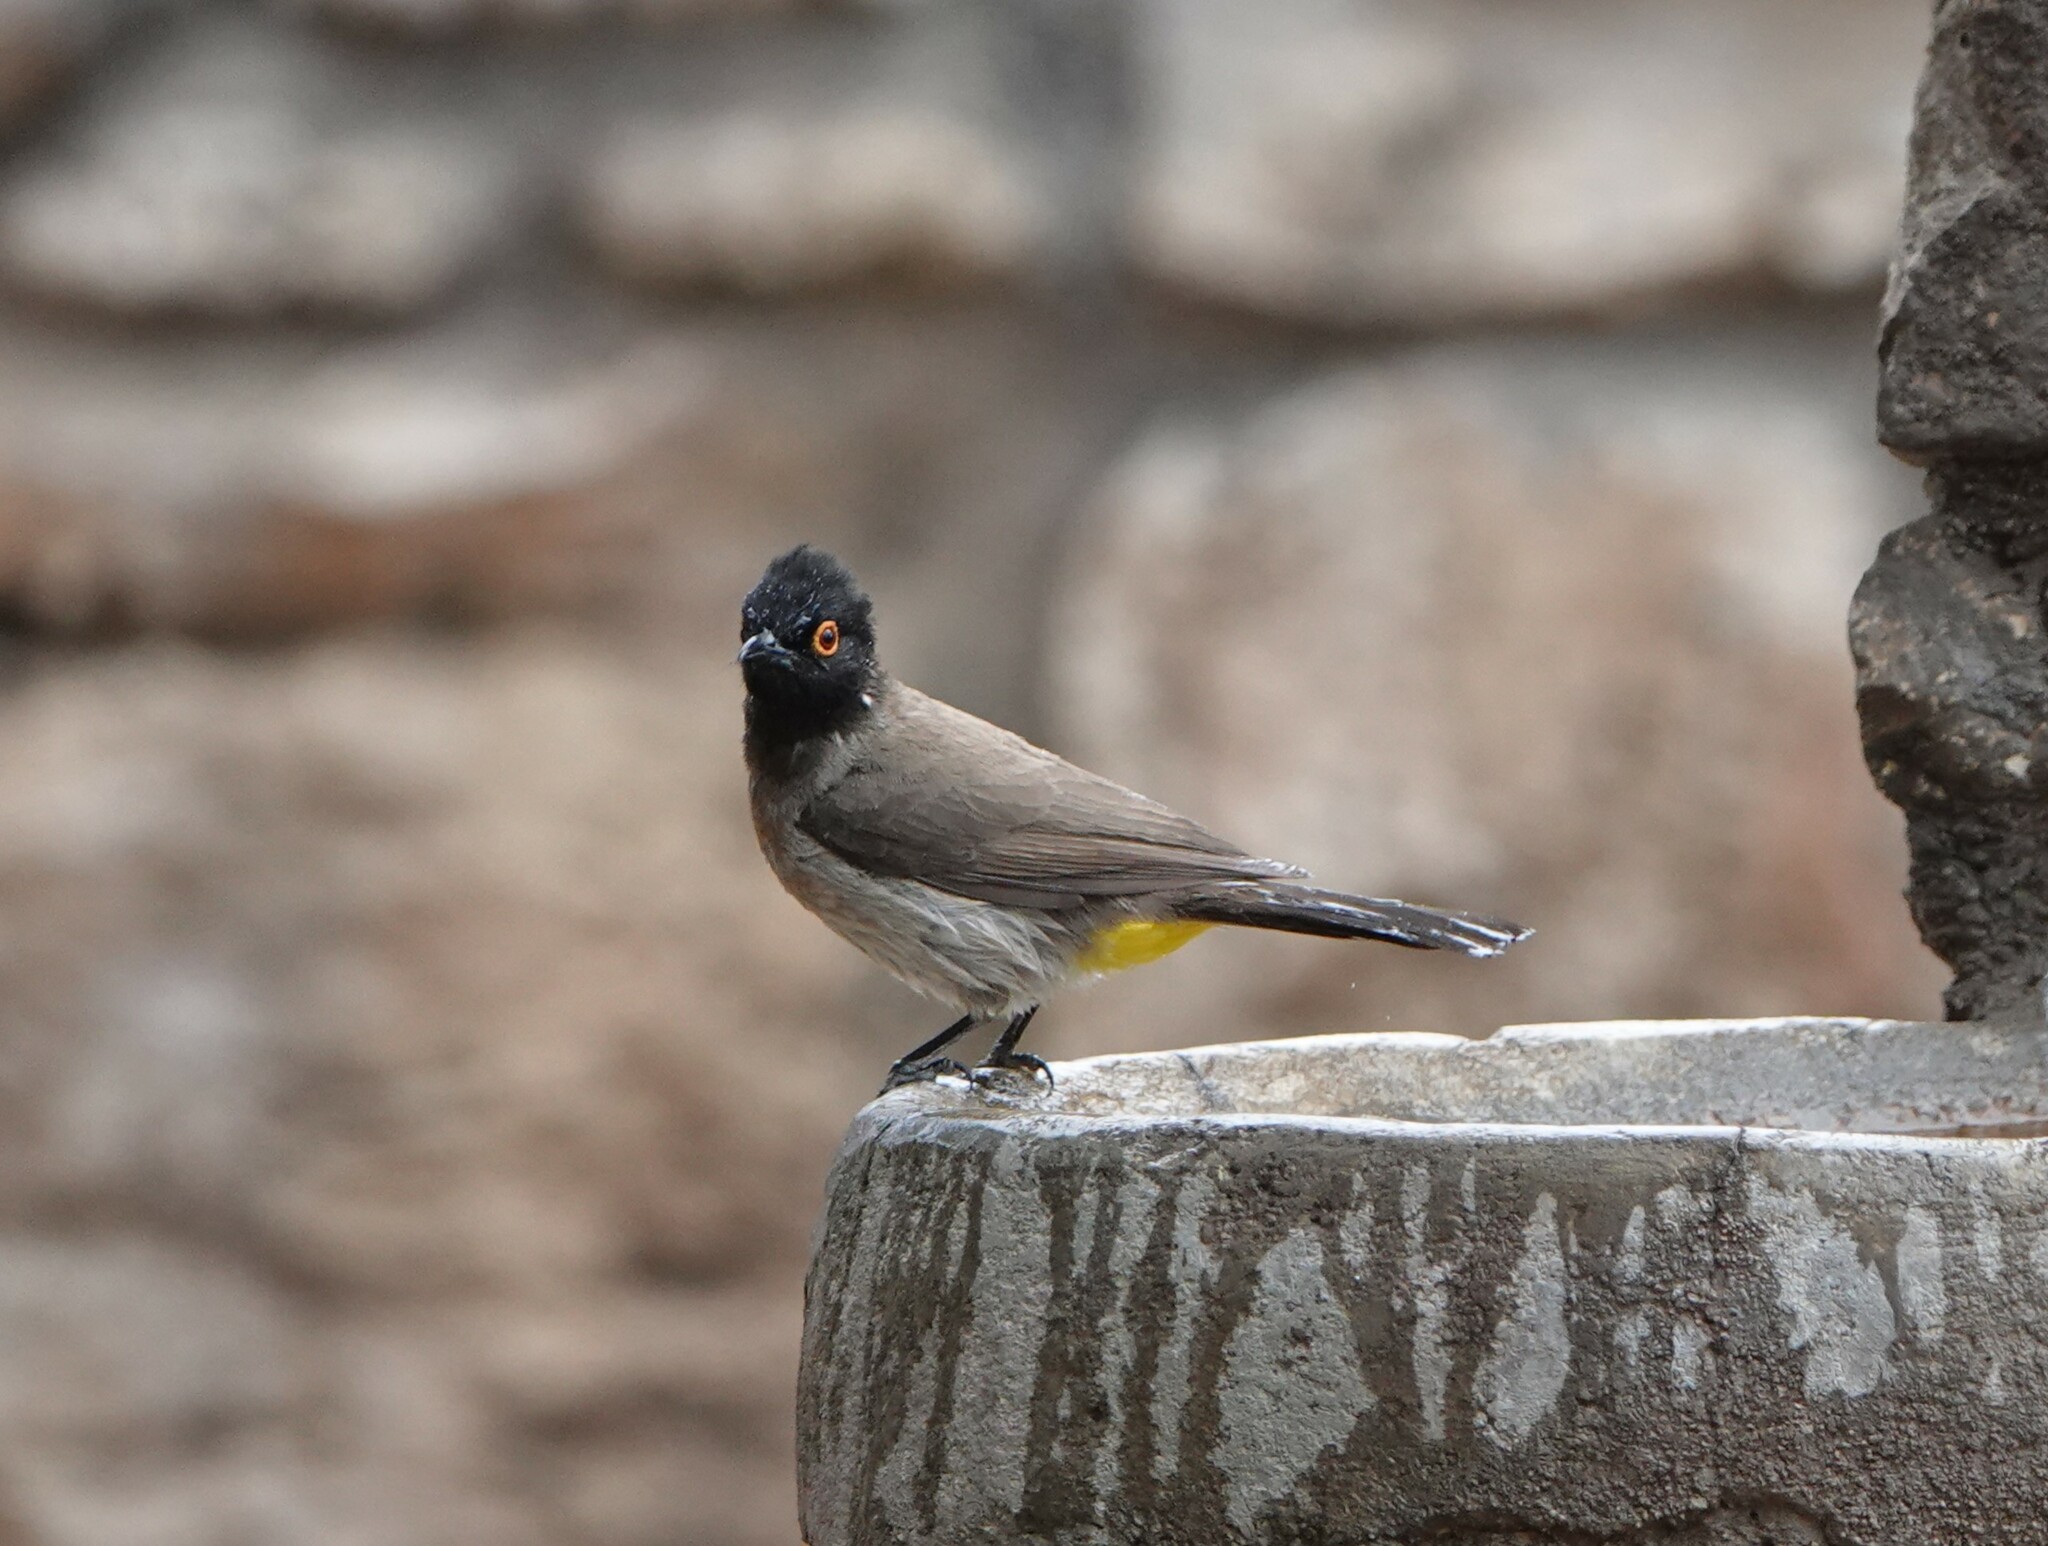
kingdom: Animalia
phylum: Chordata
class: Aves
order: Passeriformes
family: Pycnonotidae
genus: Pycnonotus
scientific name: Pycnonotus nigricans
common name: African red-eyed bulbul
